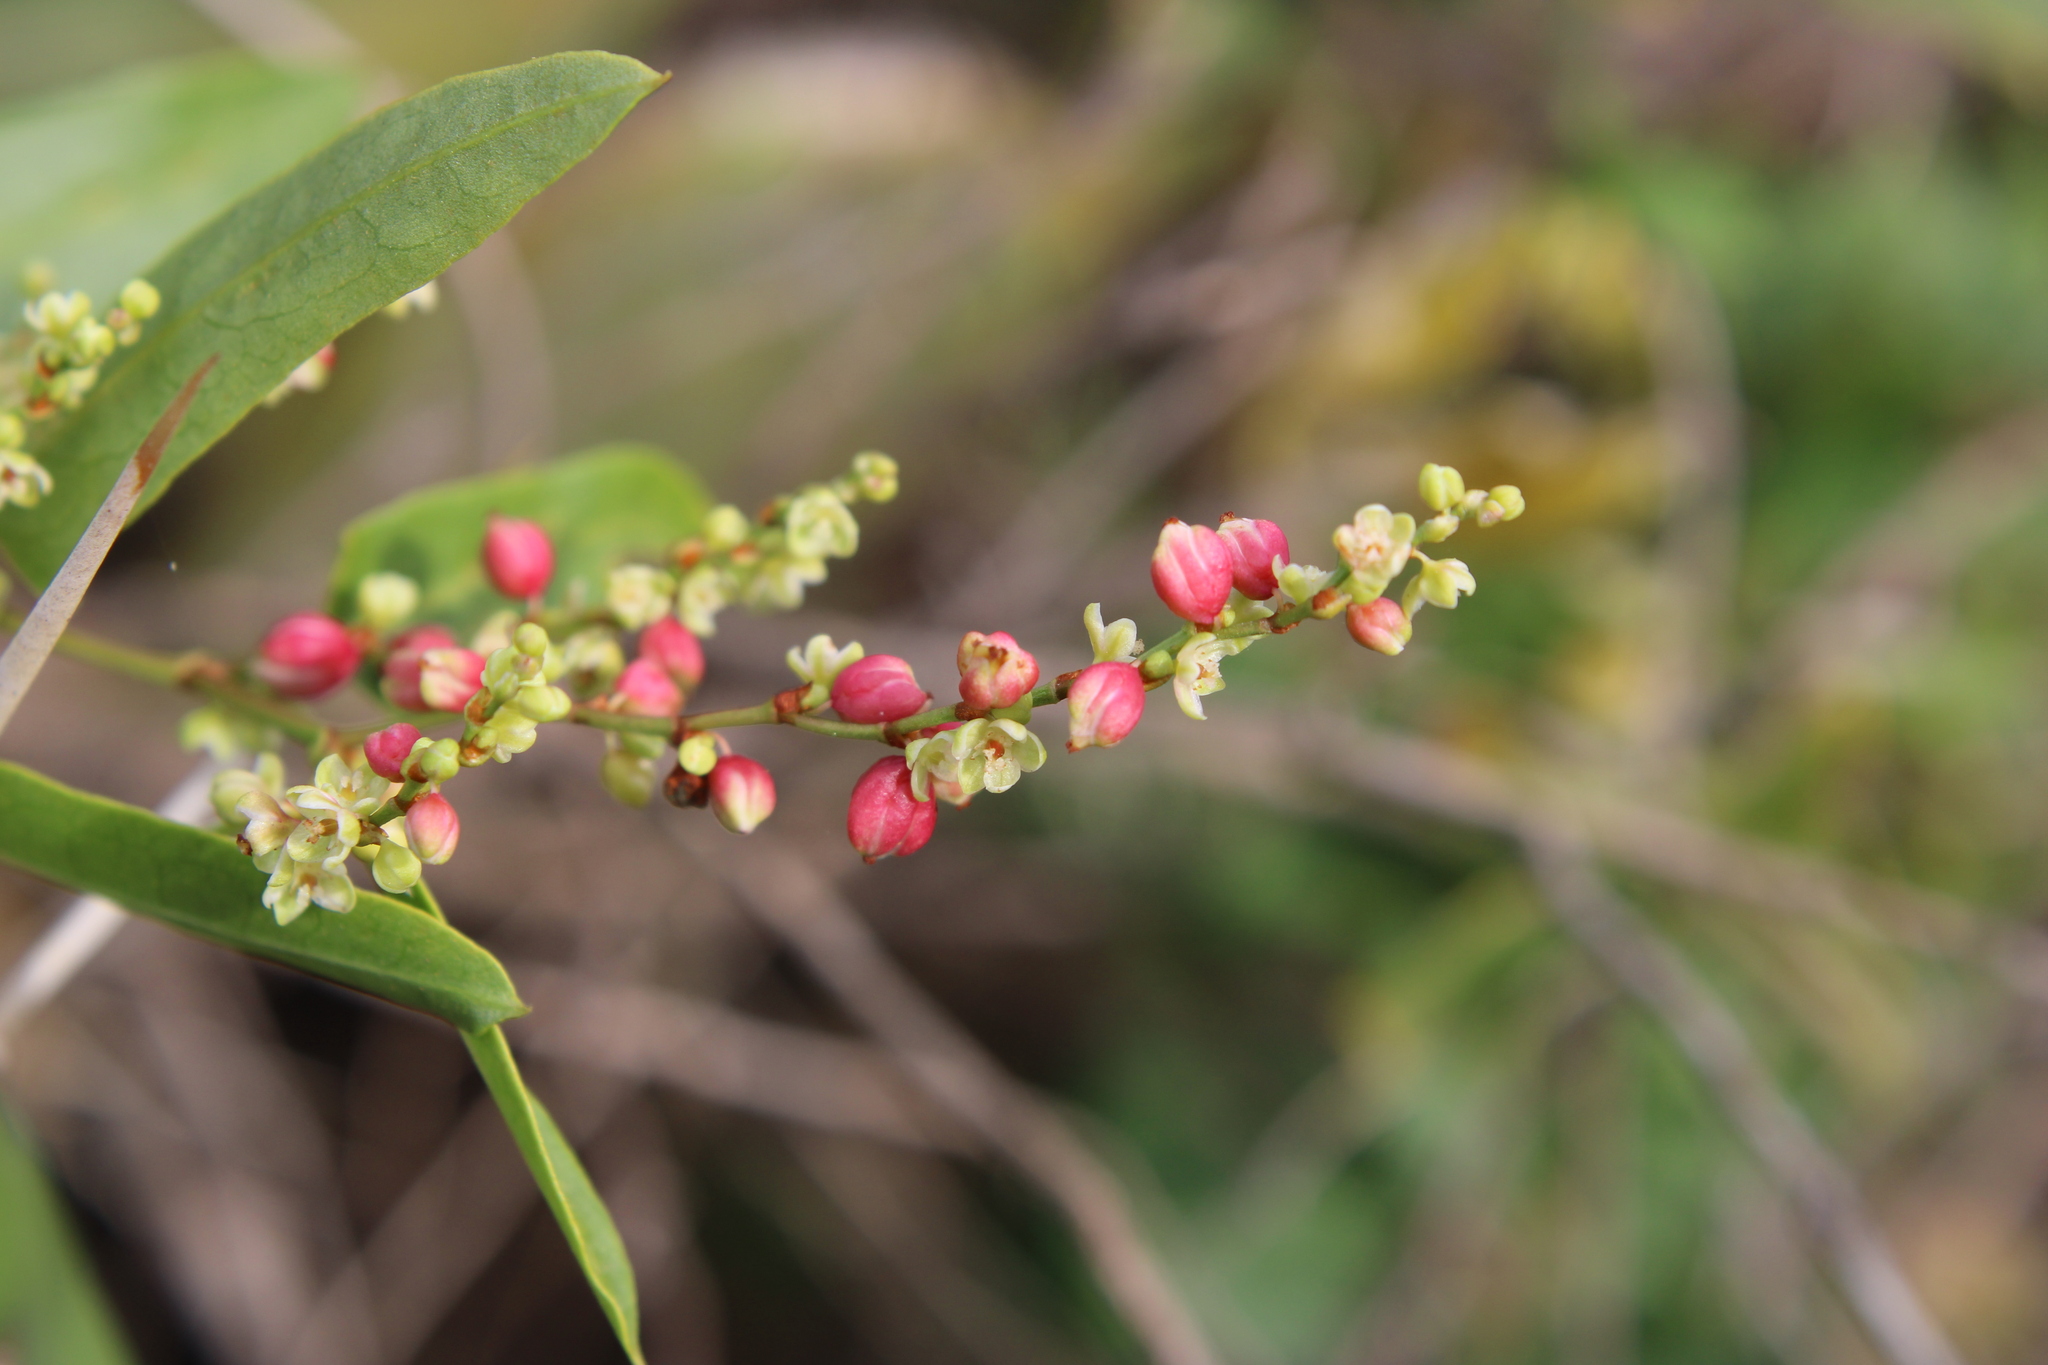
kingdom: Plantae
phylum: Tracheophyta
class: Magnoliopsida
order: Caryophyllales
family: Polygonaceae
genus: Muehlenbeckia
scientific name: Muehlenbeckia sagittifolia
